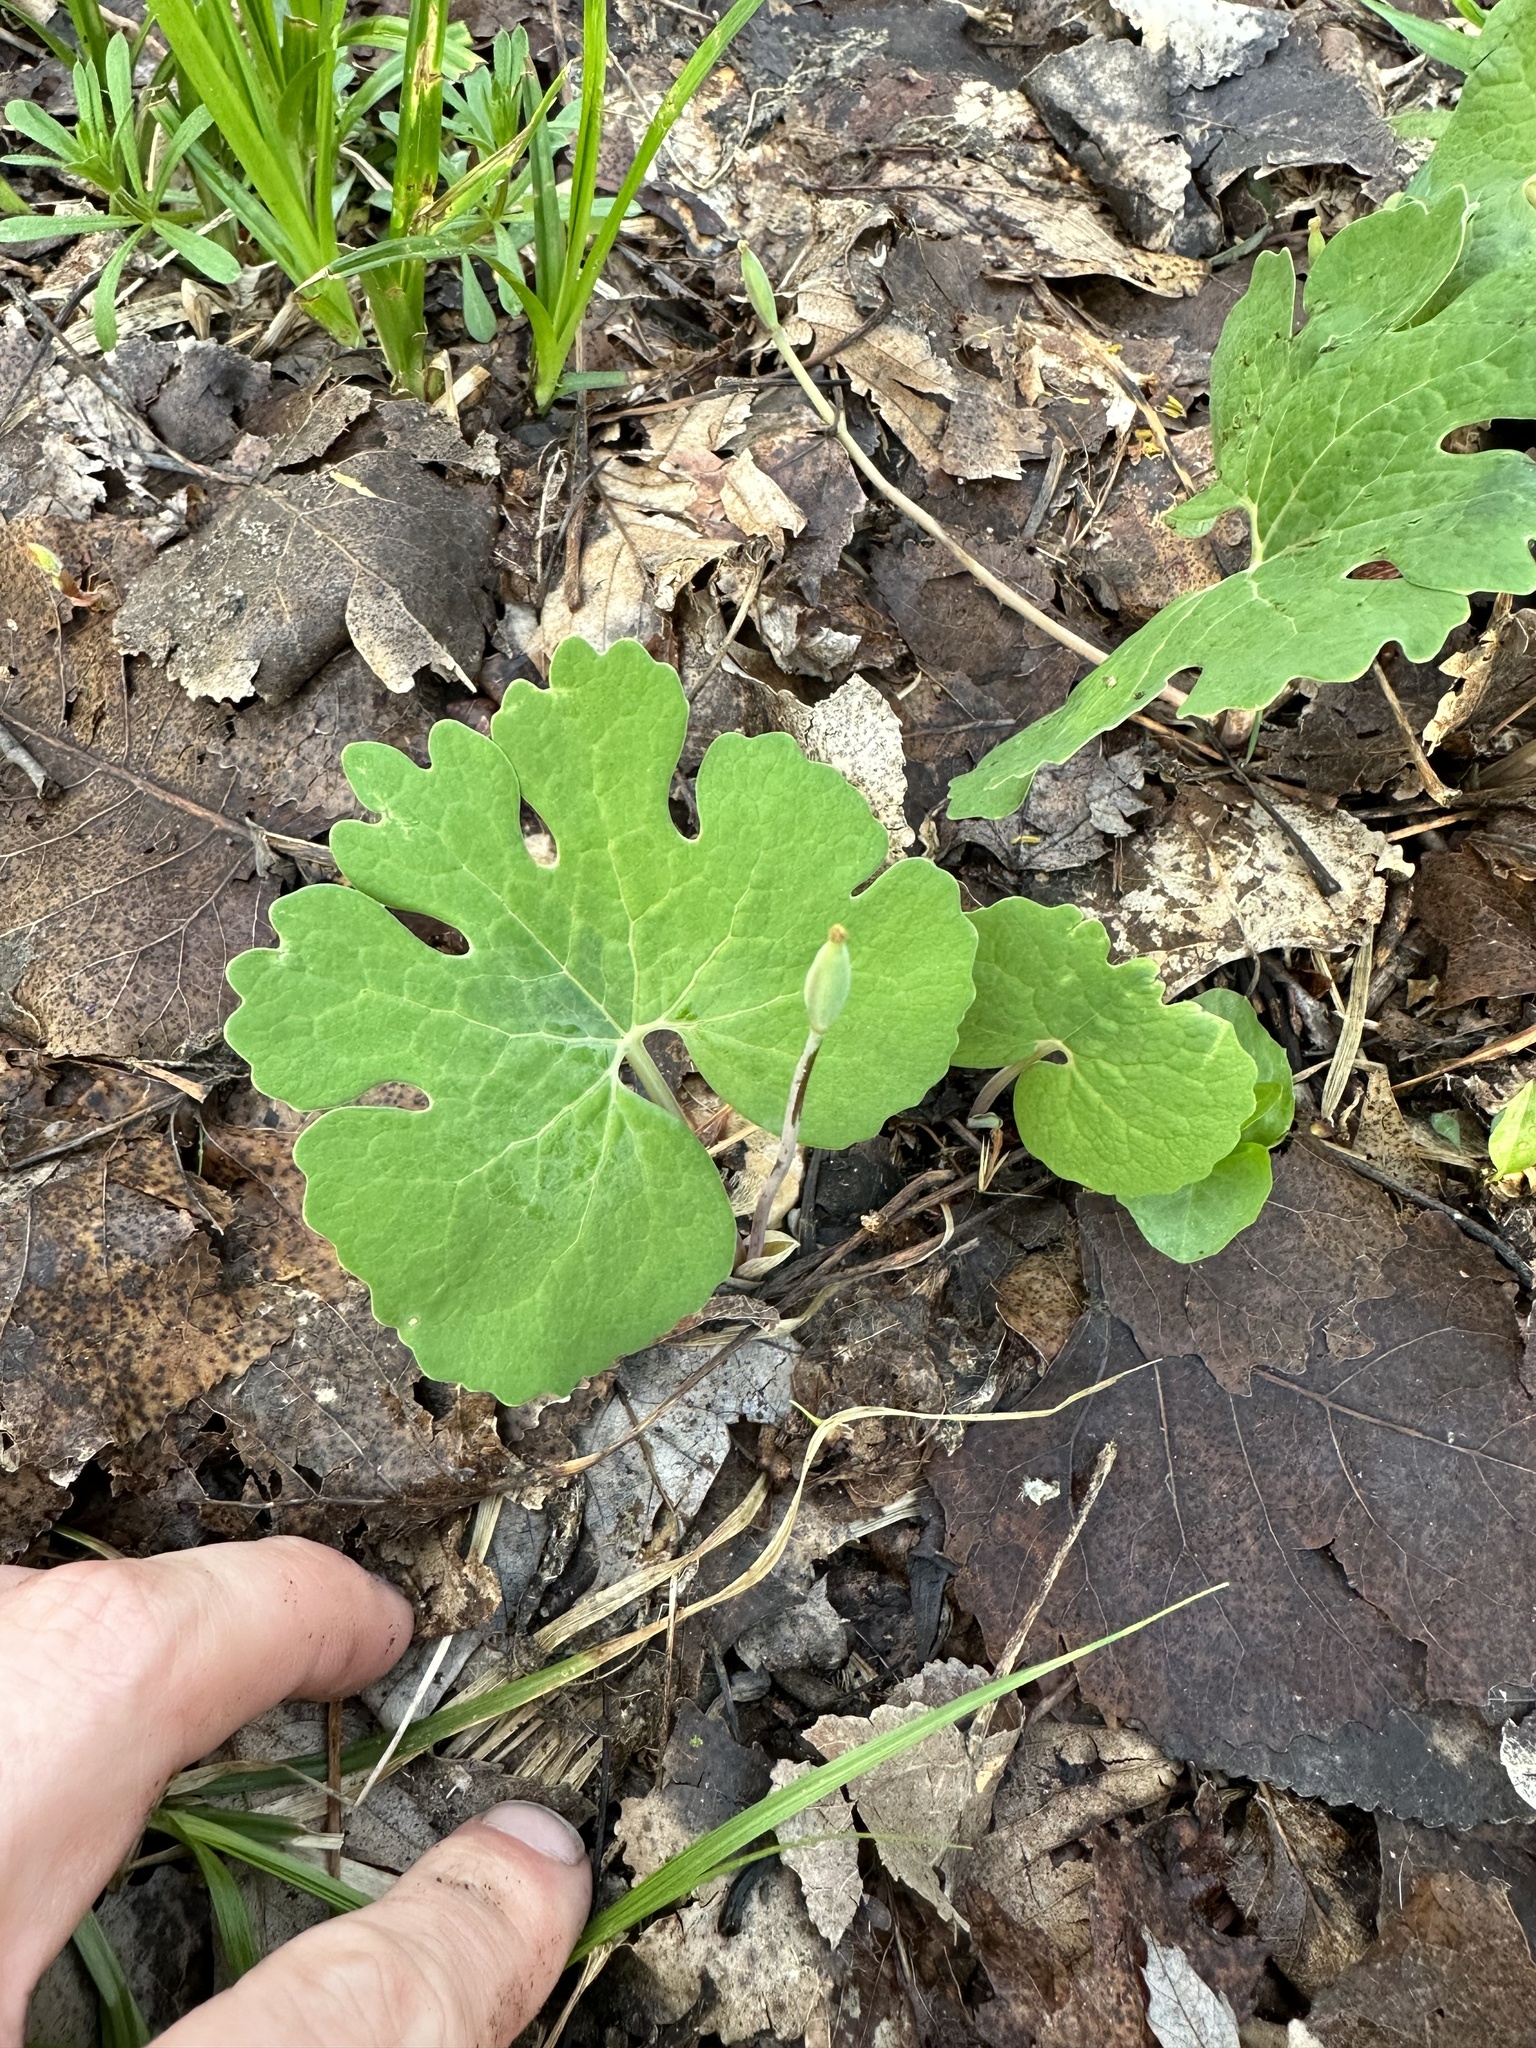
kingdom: Plantae
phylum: Tracheophyta
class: Magnoliopsida
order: Ranunculales
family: Papaveraceae
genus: Sanguinaria
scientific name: Sanguinaria canadensis
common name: Bloodroot
